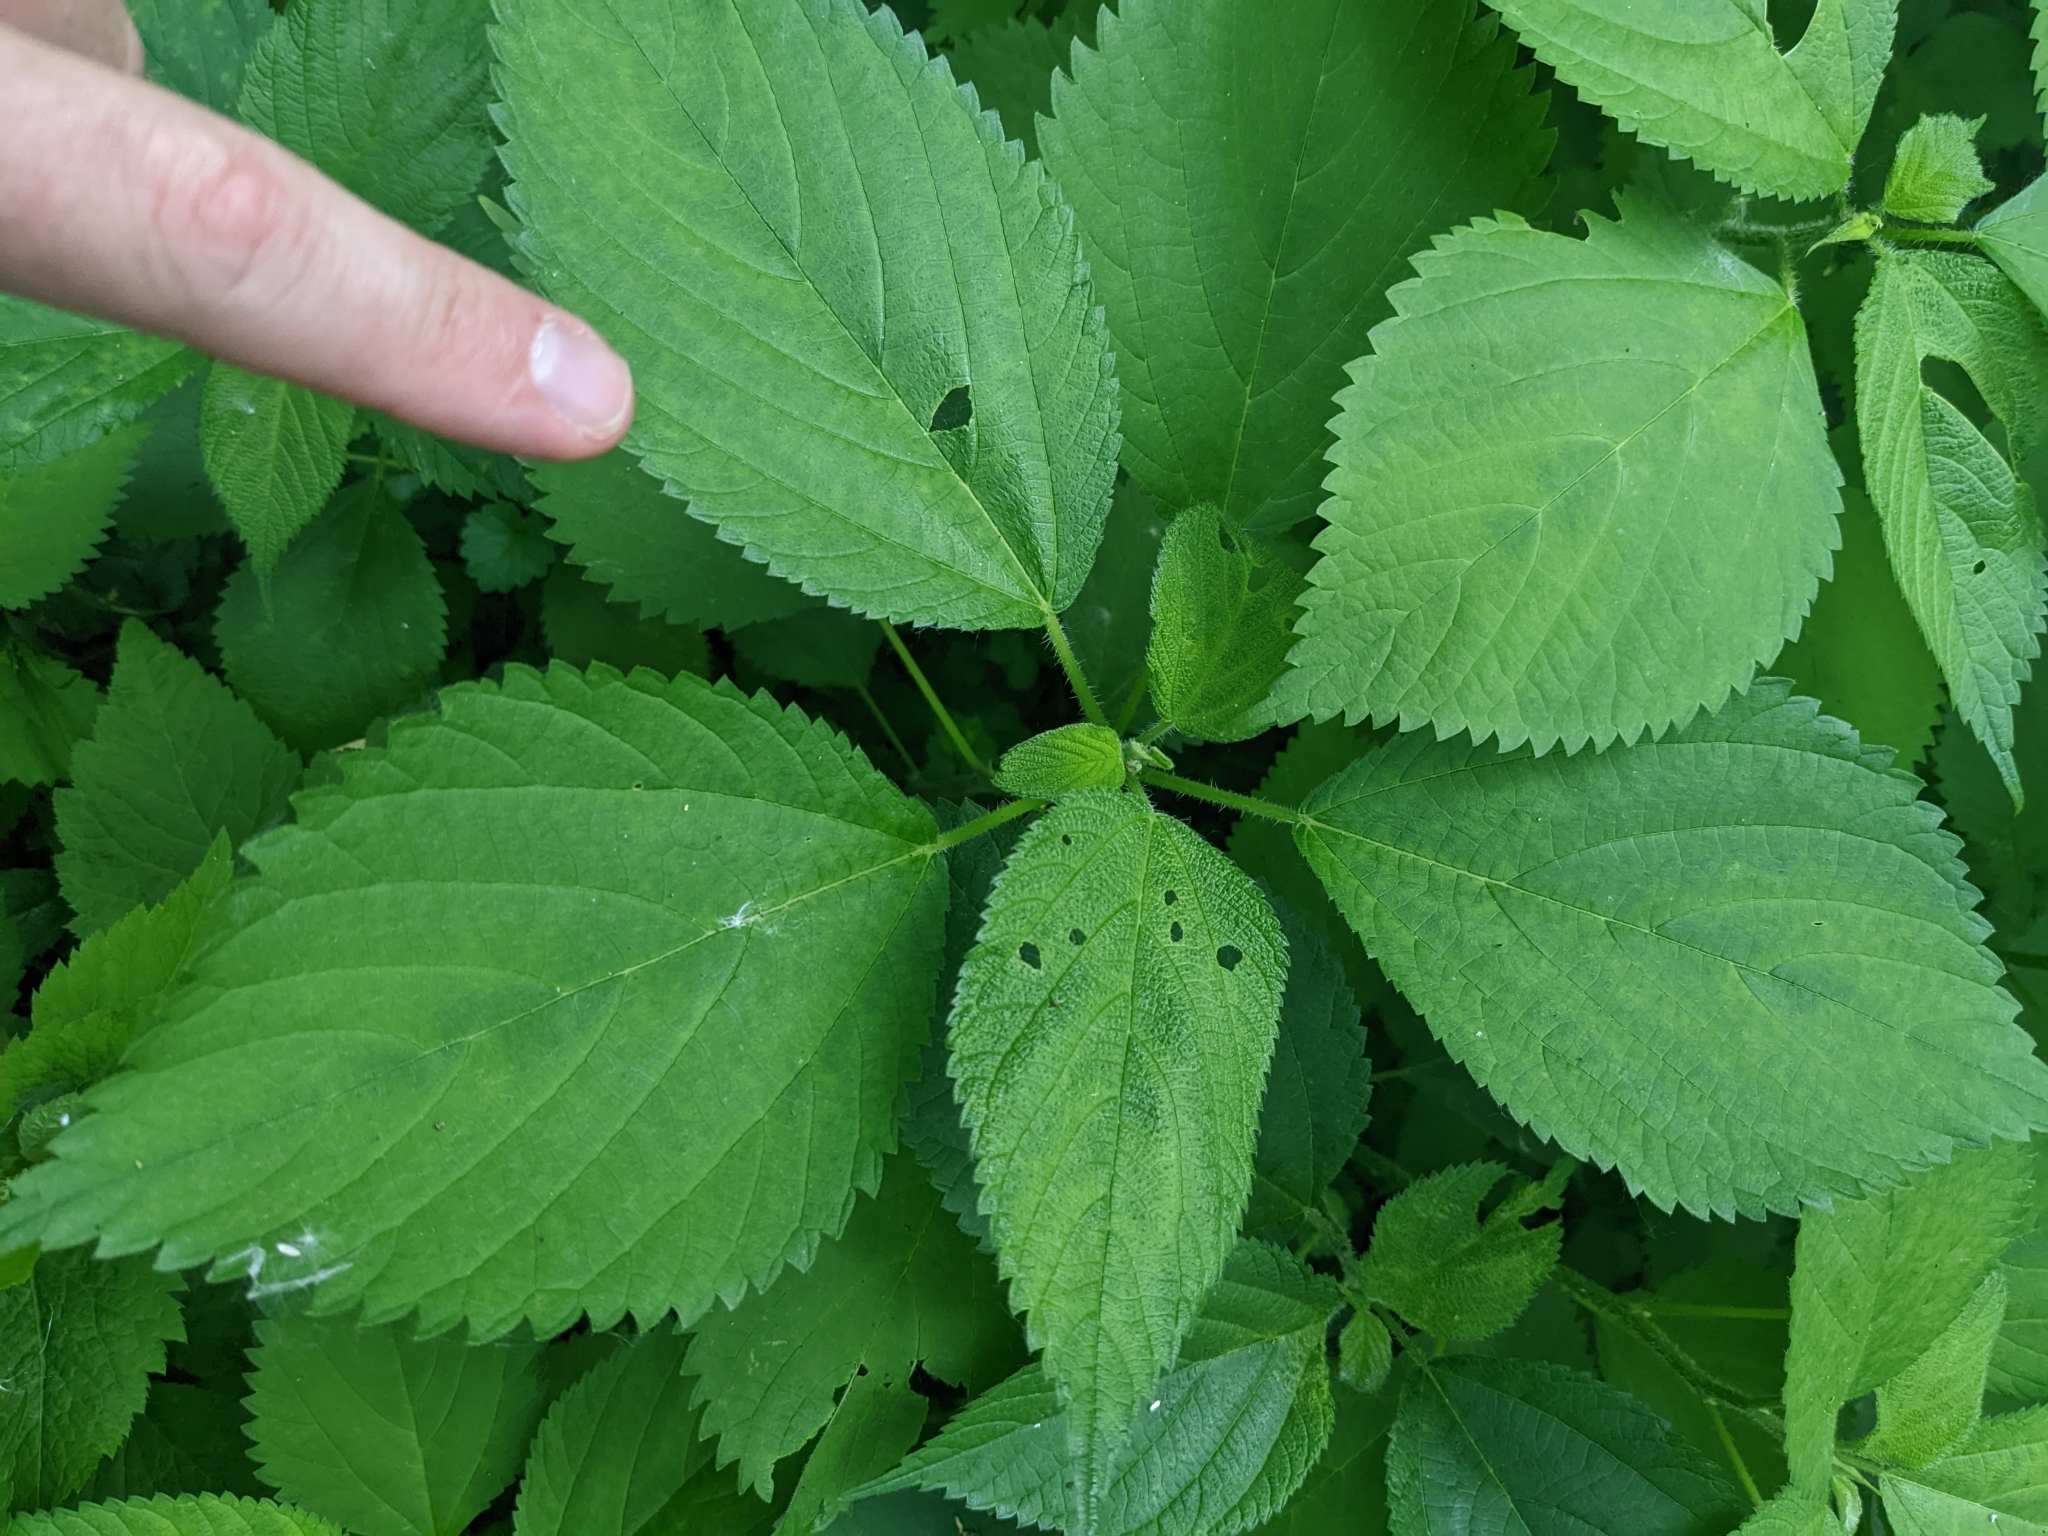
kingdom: Plantae
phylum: Tracheophyta
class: Magnoliopsida
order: Rosales
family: Urticaceae
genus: Laportea
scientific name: Laportea canadensis
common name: Canada nettle
